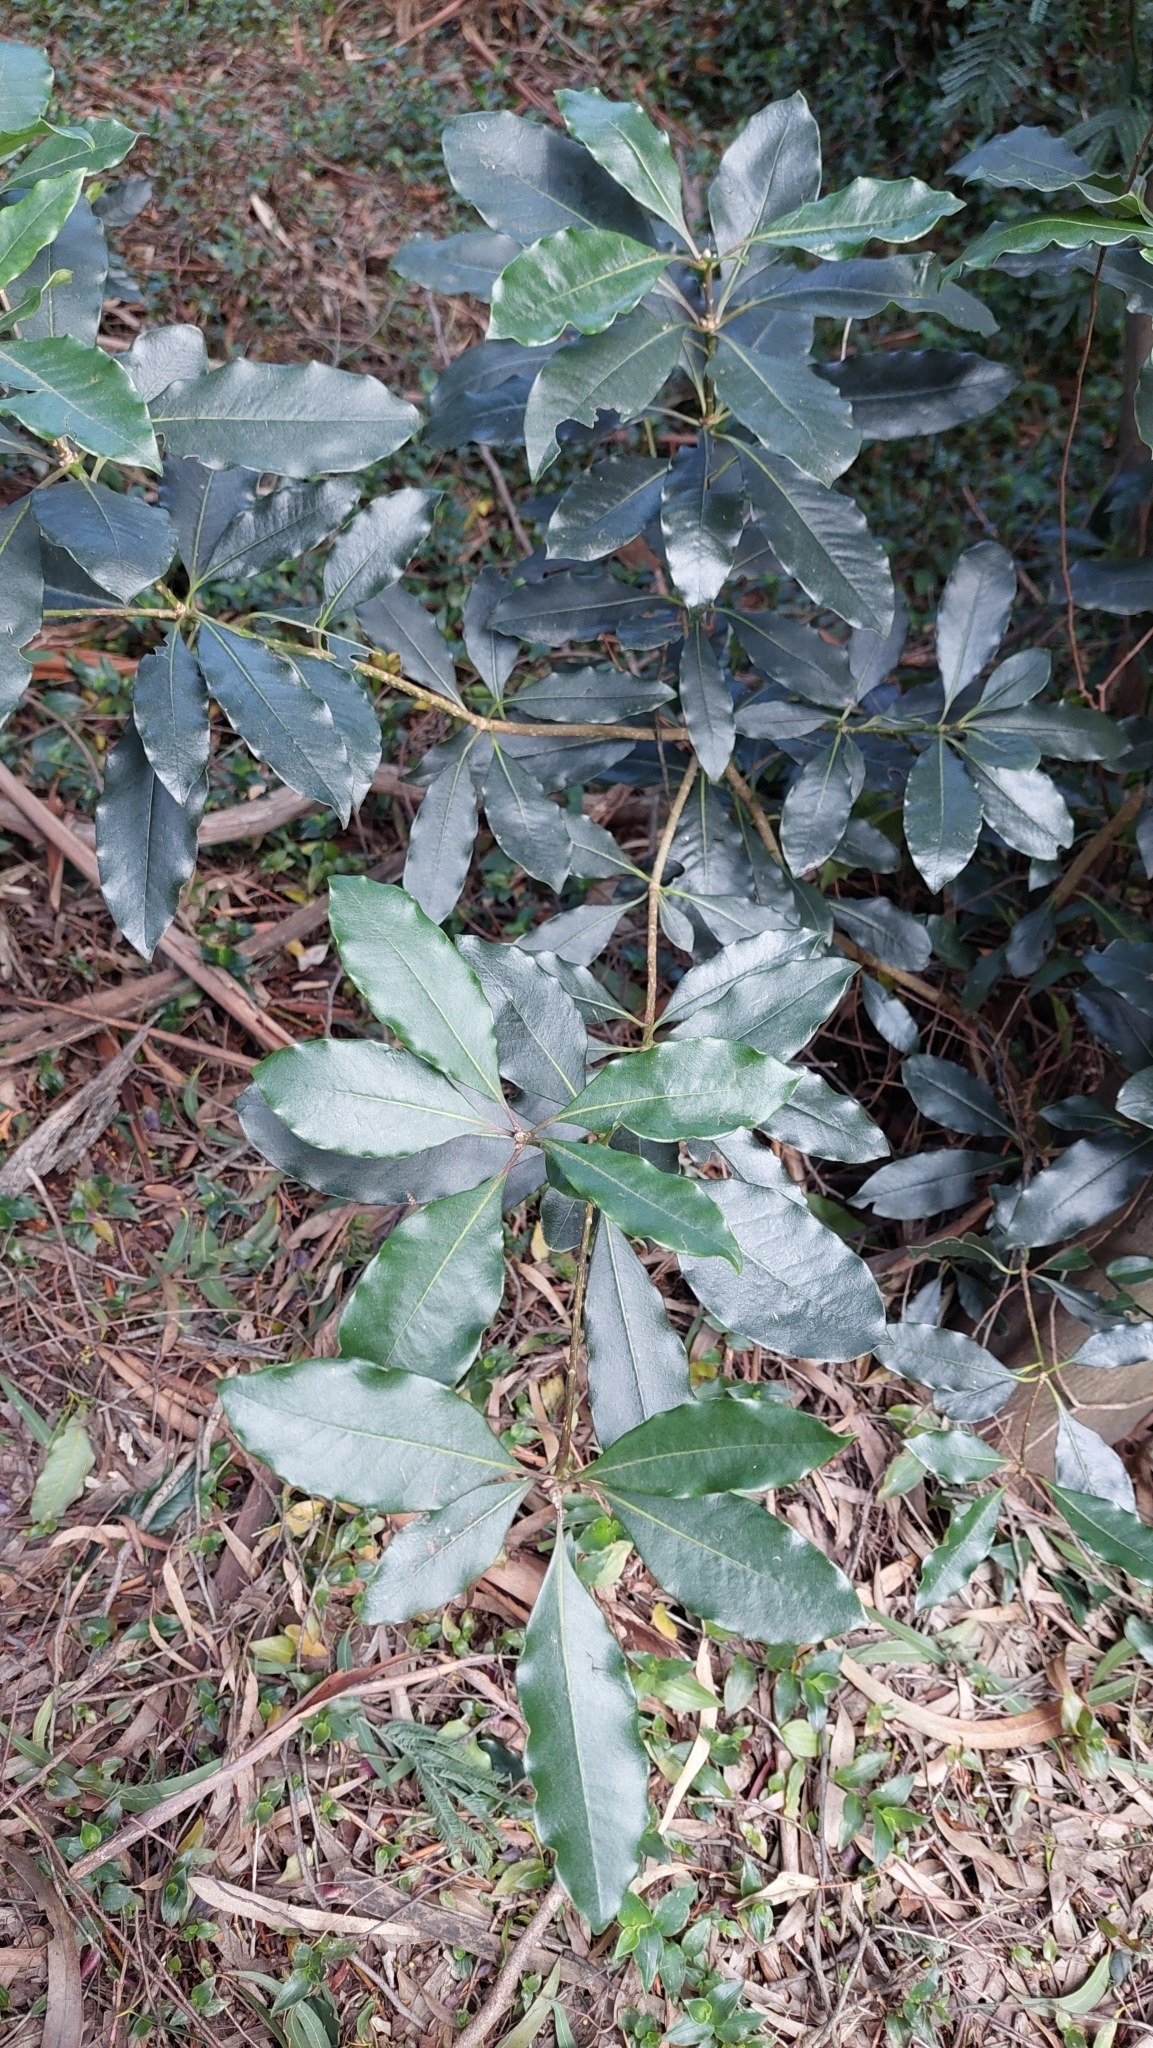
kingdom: Plantae
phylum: Tracheophyta
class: Magnoliopsida
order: Apiales
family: Pittosporaceae
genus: Pittosporum
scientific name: Pittosporum undulatum
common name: Australian cheesewood
